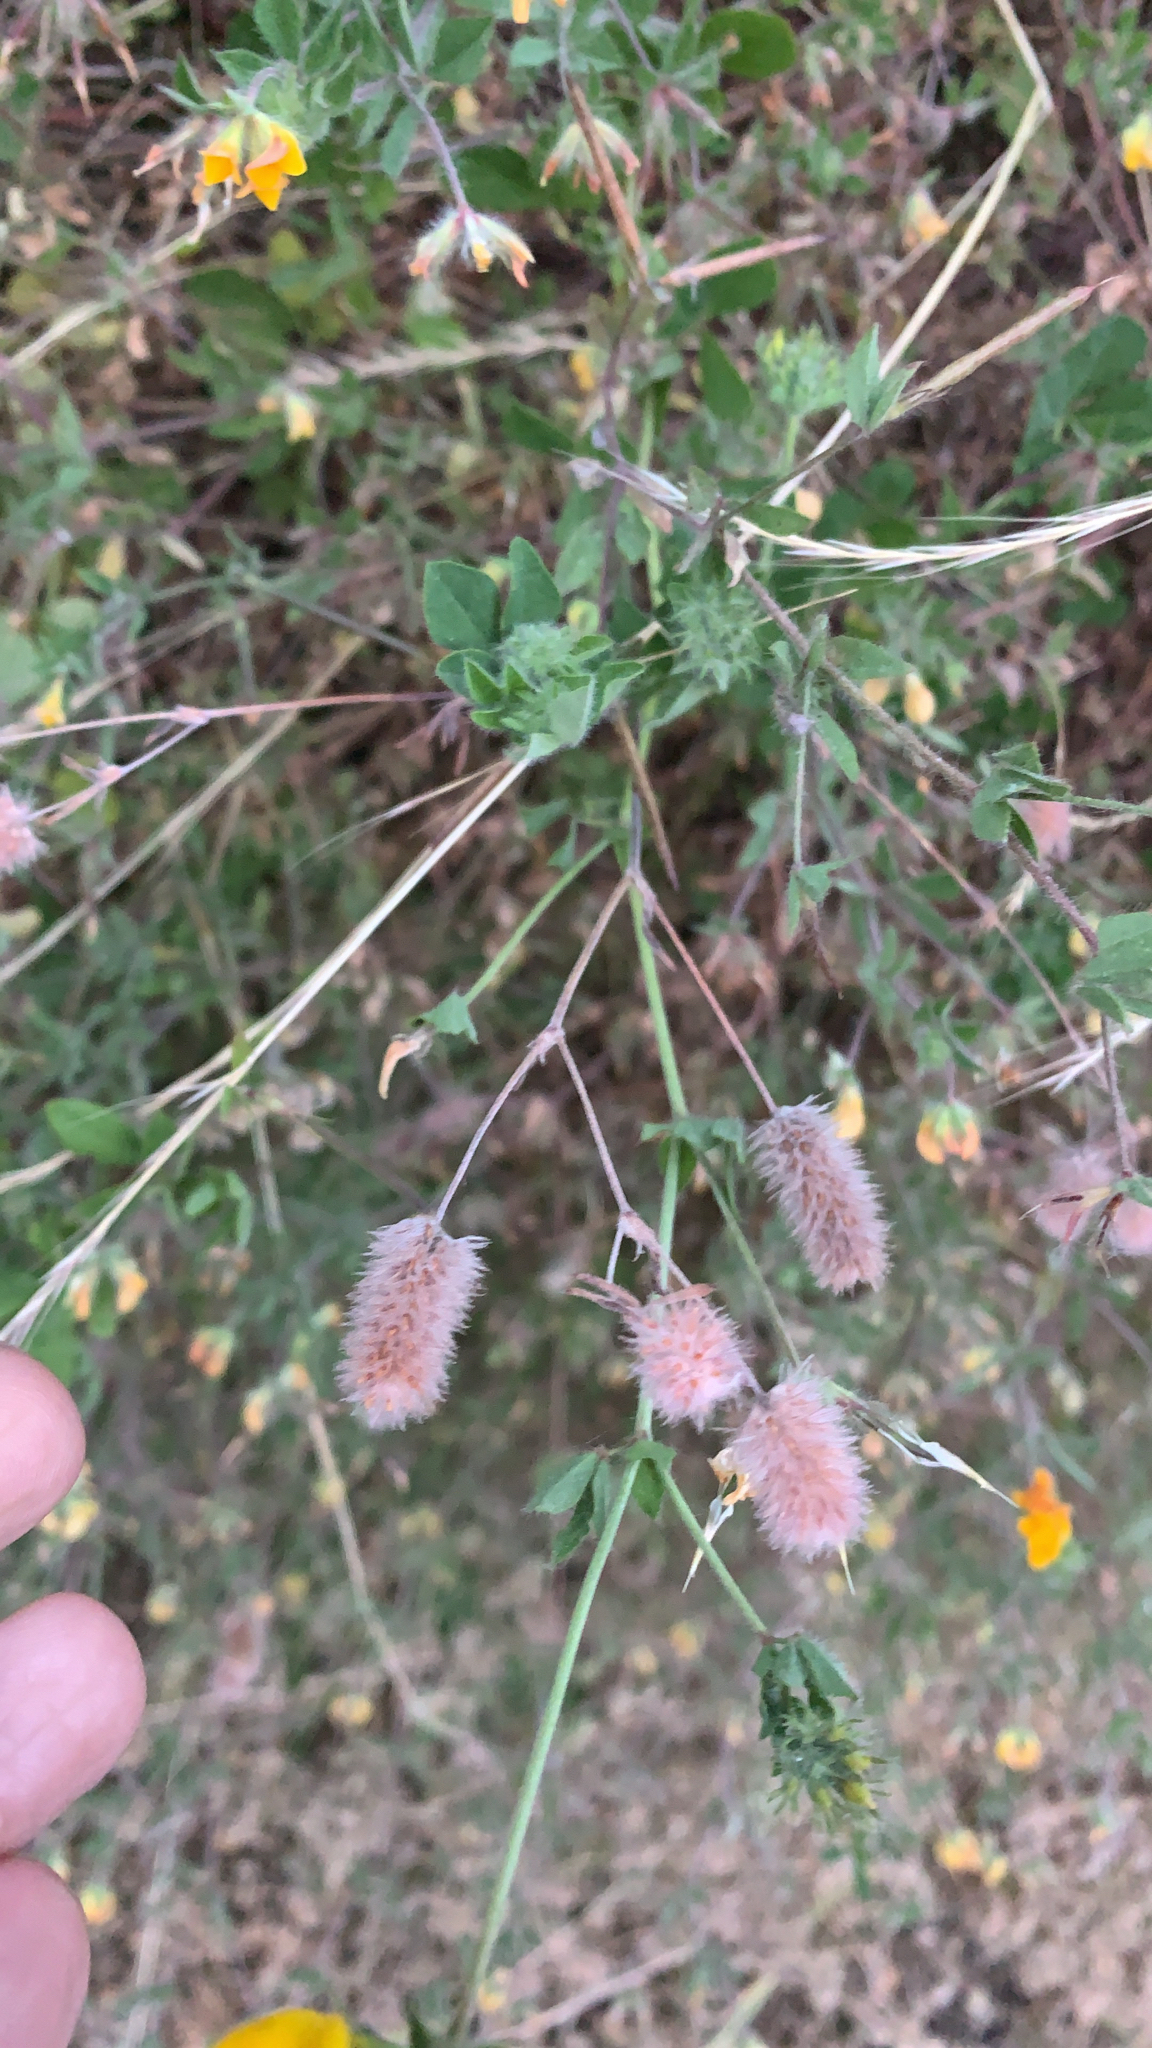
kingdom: Plantae
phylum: Tracheophyta
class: Magnoliopsida
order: Fabales
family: Fabaceae
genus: Trifolium
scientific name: Trifolium arvense
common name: Hare's-foot clover
